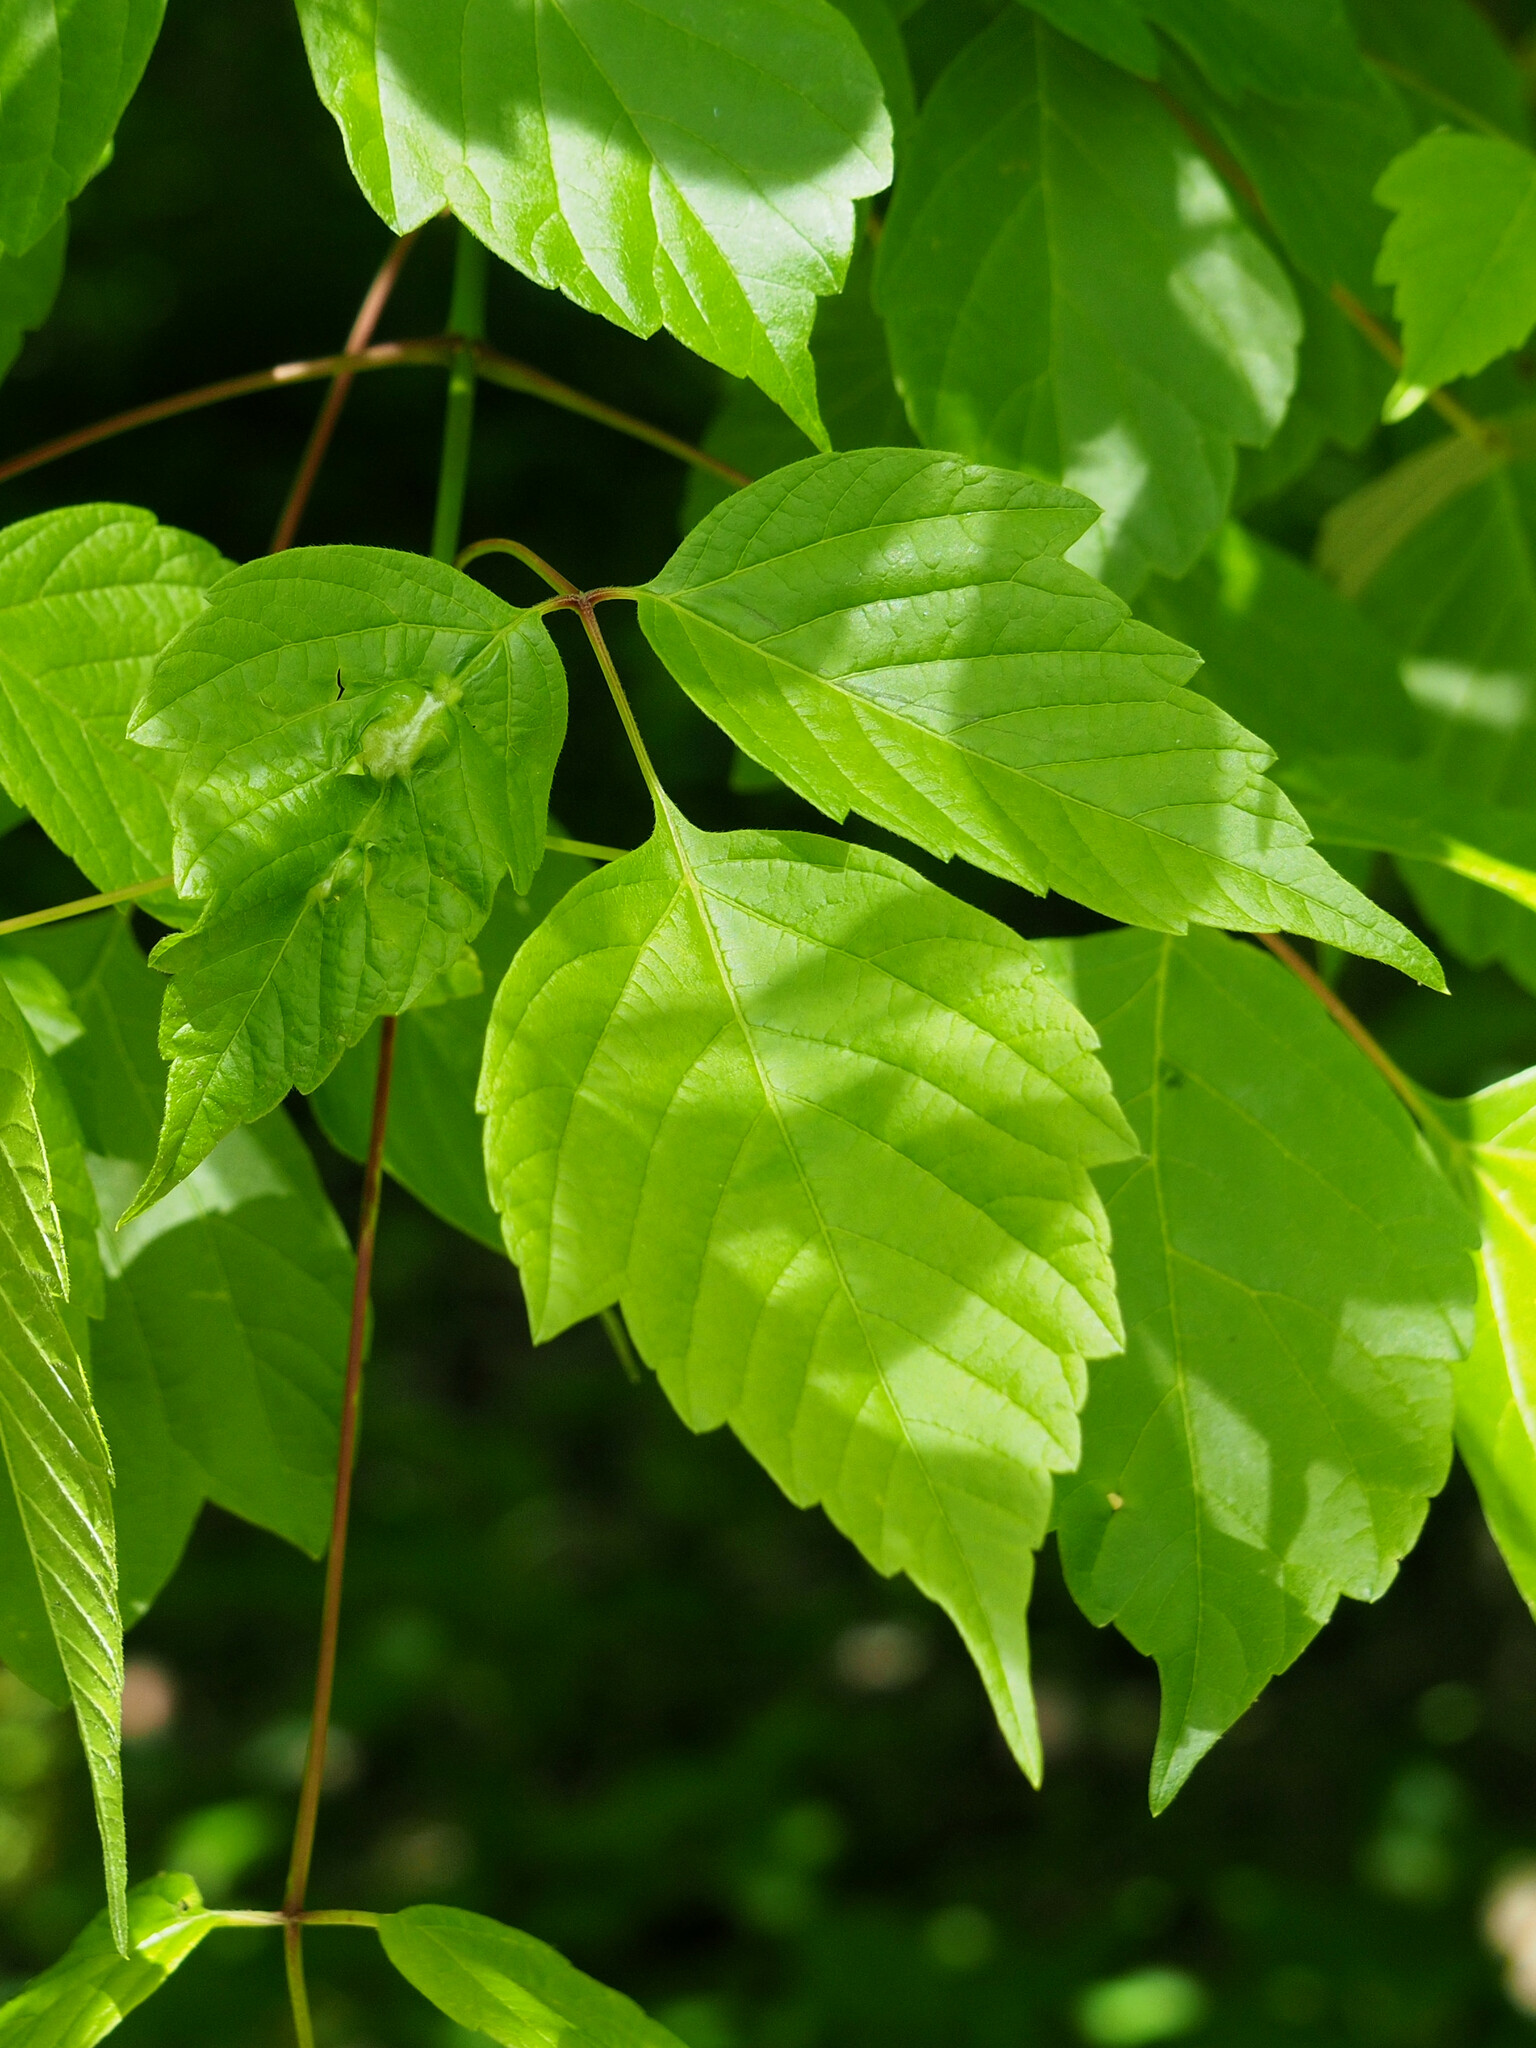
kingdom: Animalia
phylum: Arthropoda
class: Insecta
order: Diptera
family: Cecidomyiidae
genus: Contarinia
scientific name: Contarinia negundinis
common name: Boxelder budgall midge
